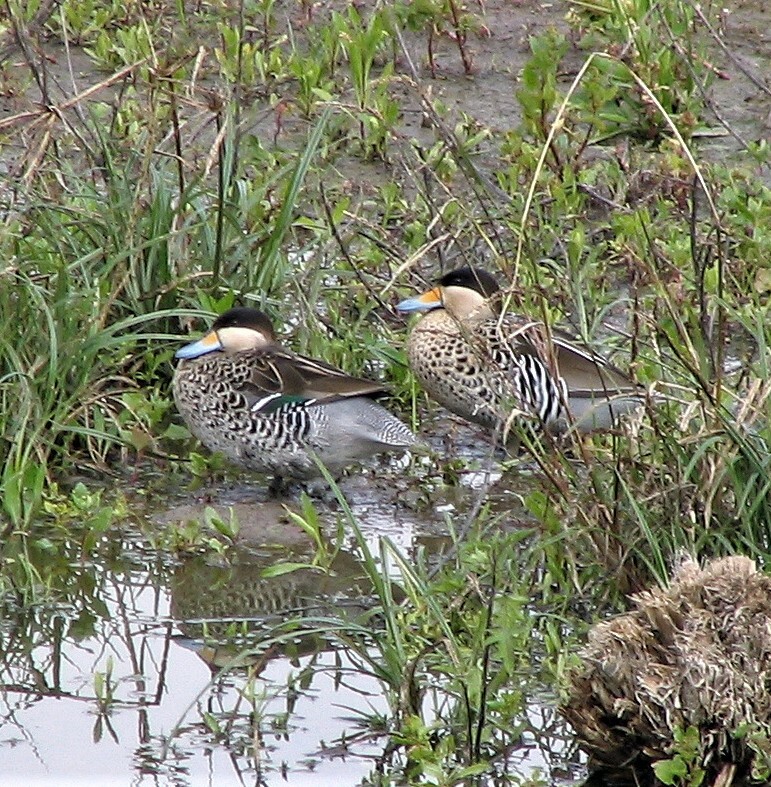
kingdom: Animalia
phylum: Chordata
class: Aves
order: Anseriformes
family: Anatidae
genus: Spatula
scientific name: Spatula versicolor
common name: Silver teal
